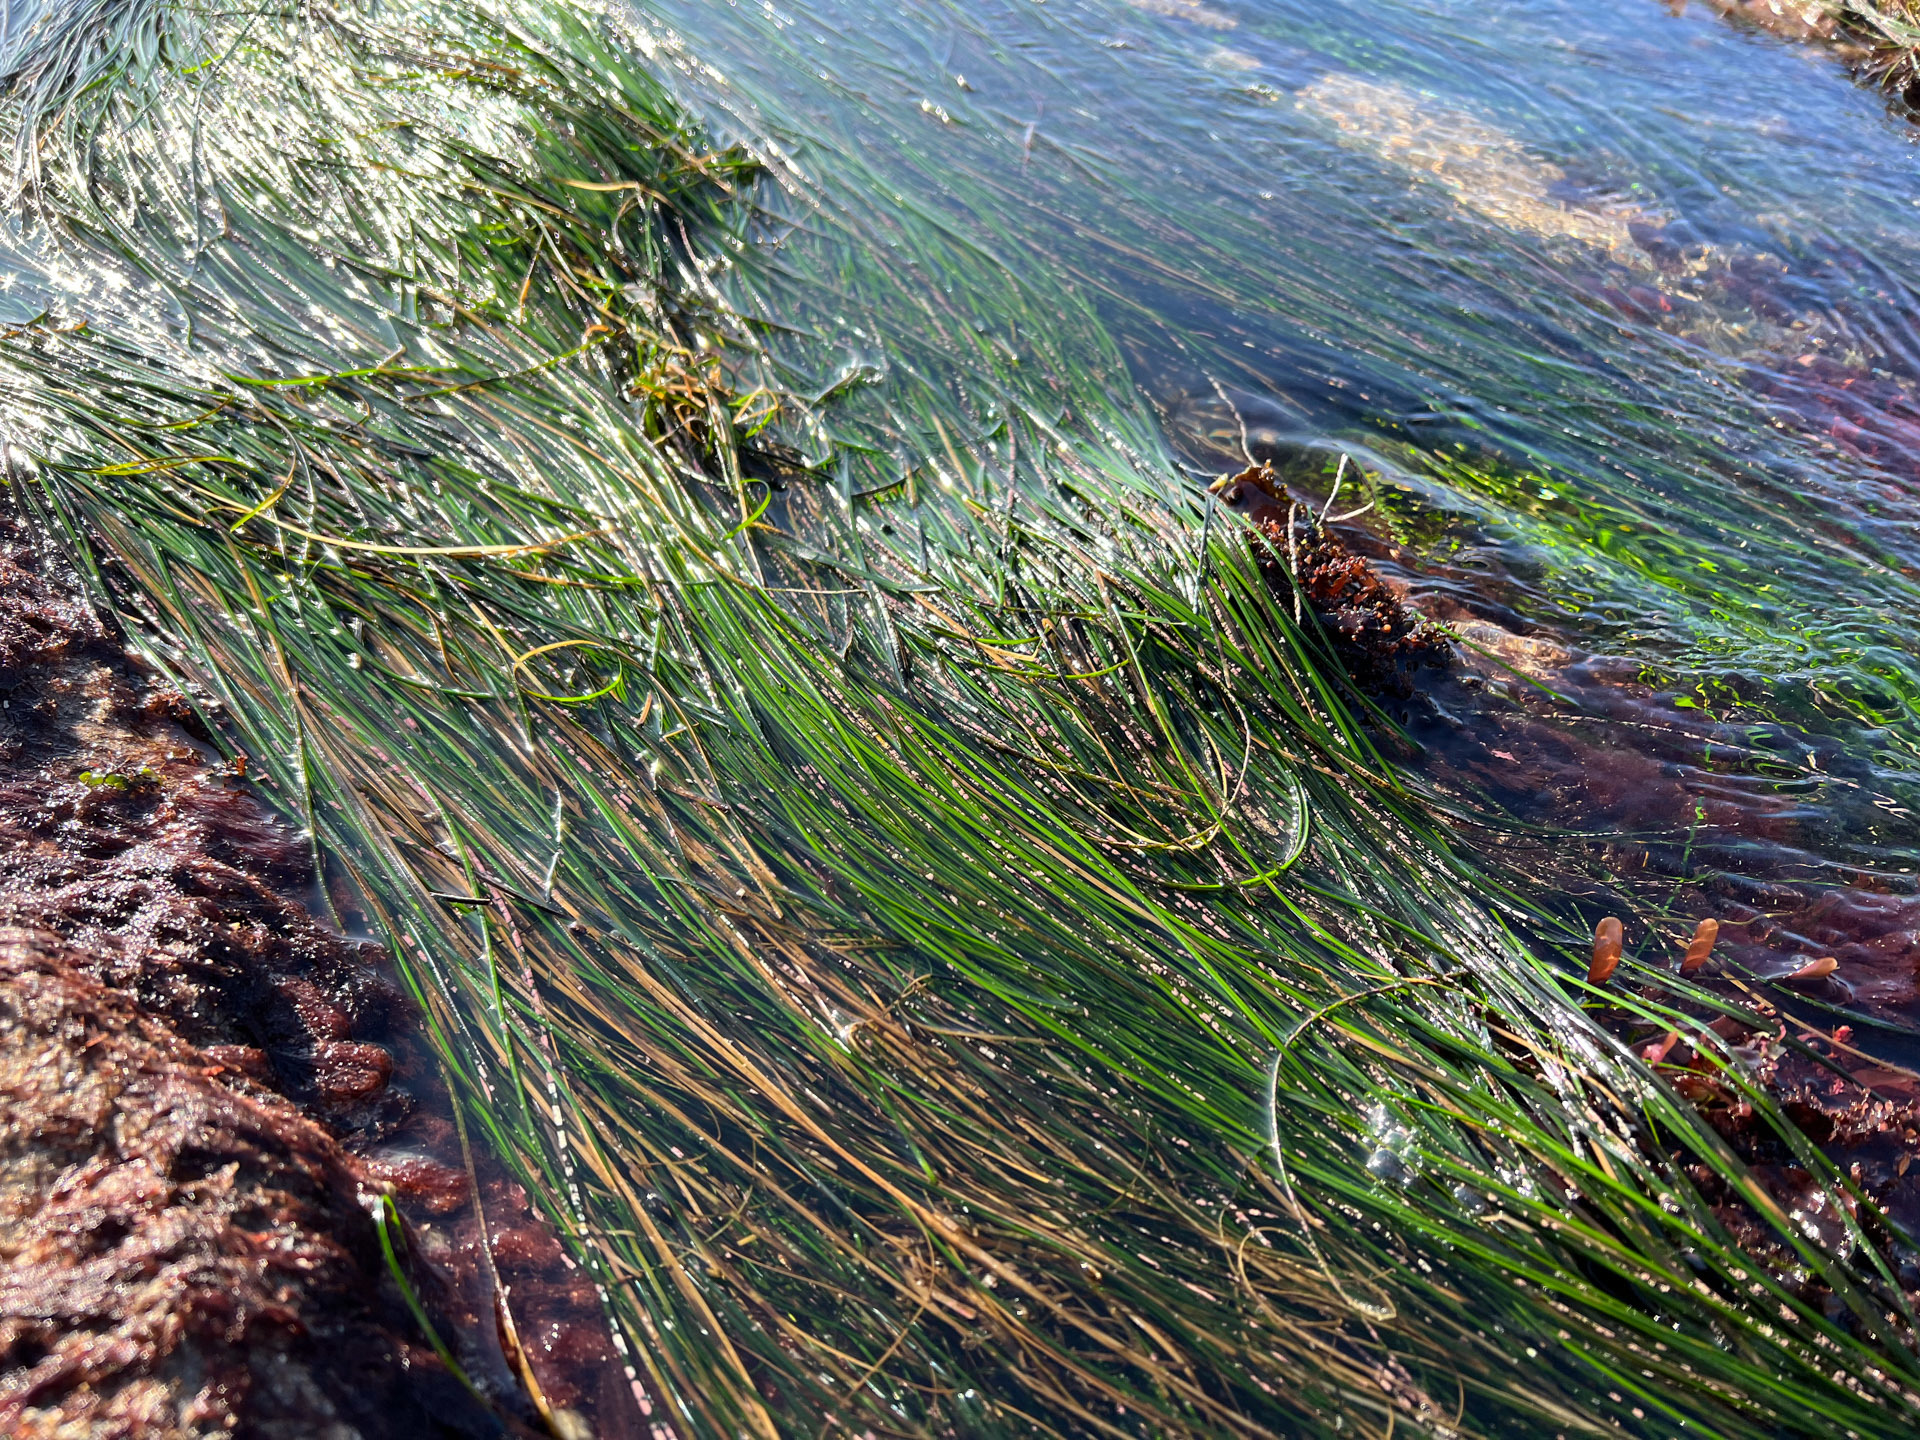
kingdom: Plantae
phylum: Tracheophyta
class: Liliopsida
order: Alismatales
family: Zosteraceae
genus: Phyllospadix
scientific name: Phyllospadix torreyi
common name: Surfgrass
